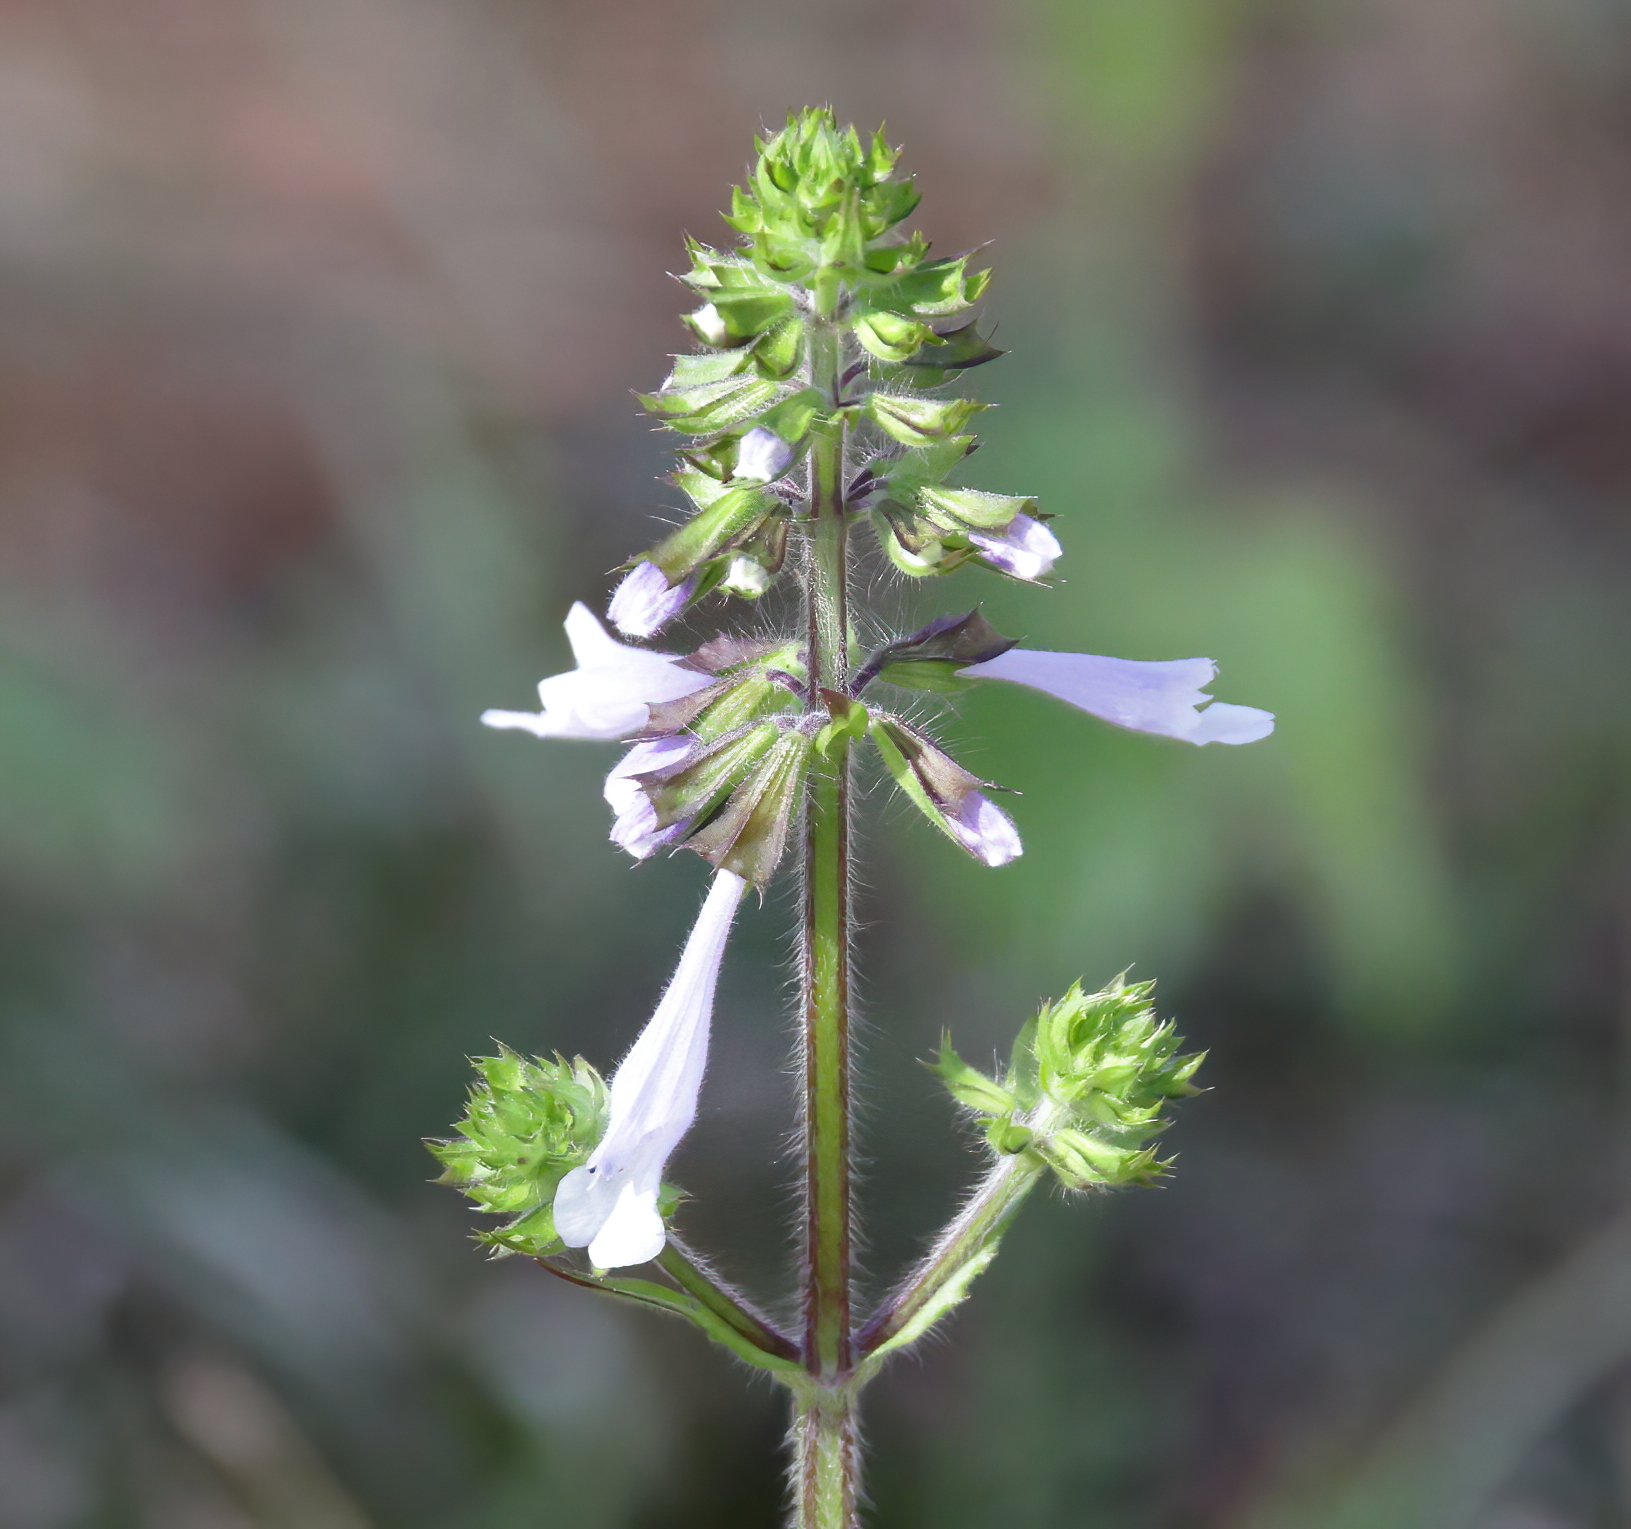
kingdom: Plantae
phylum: Tracheophyta
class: Magnoliopsida
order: Lamiales
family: Lamiaceae
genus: Salvia
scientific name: Salvia lyrata
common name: Cancerweed
